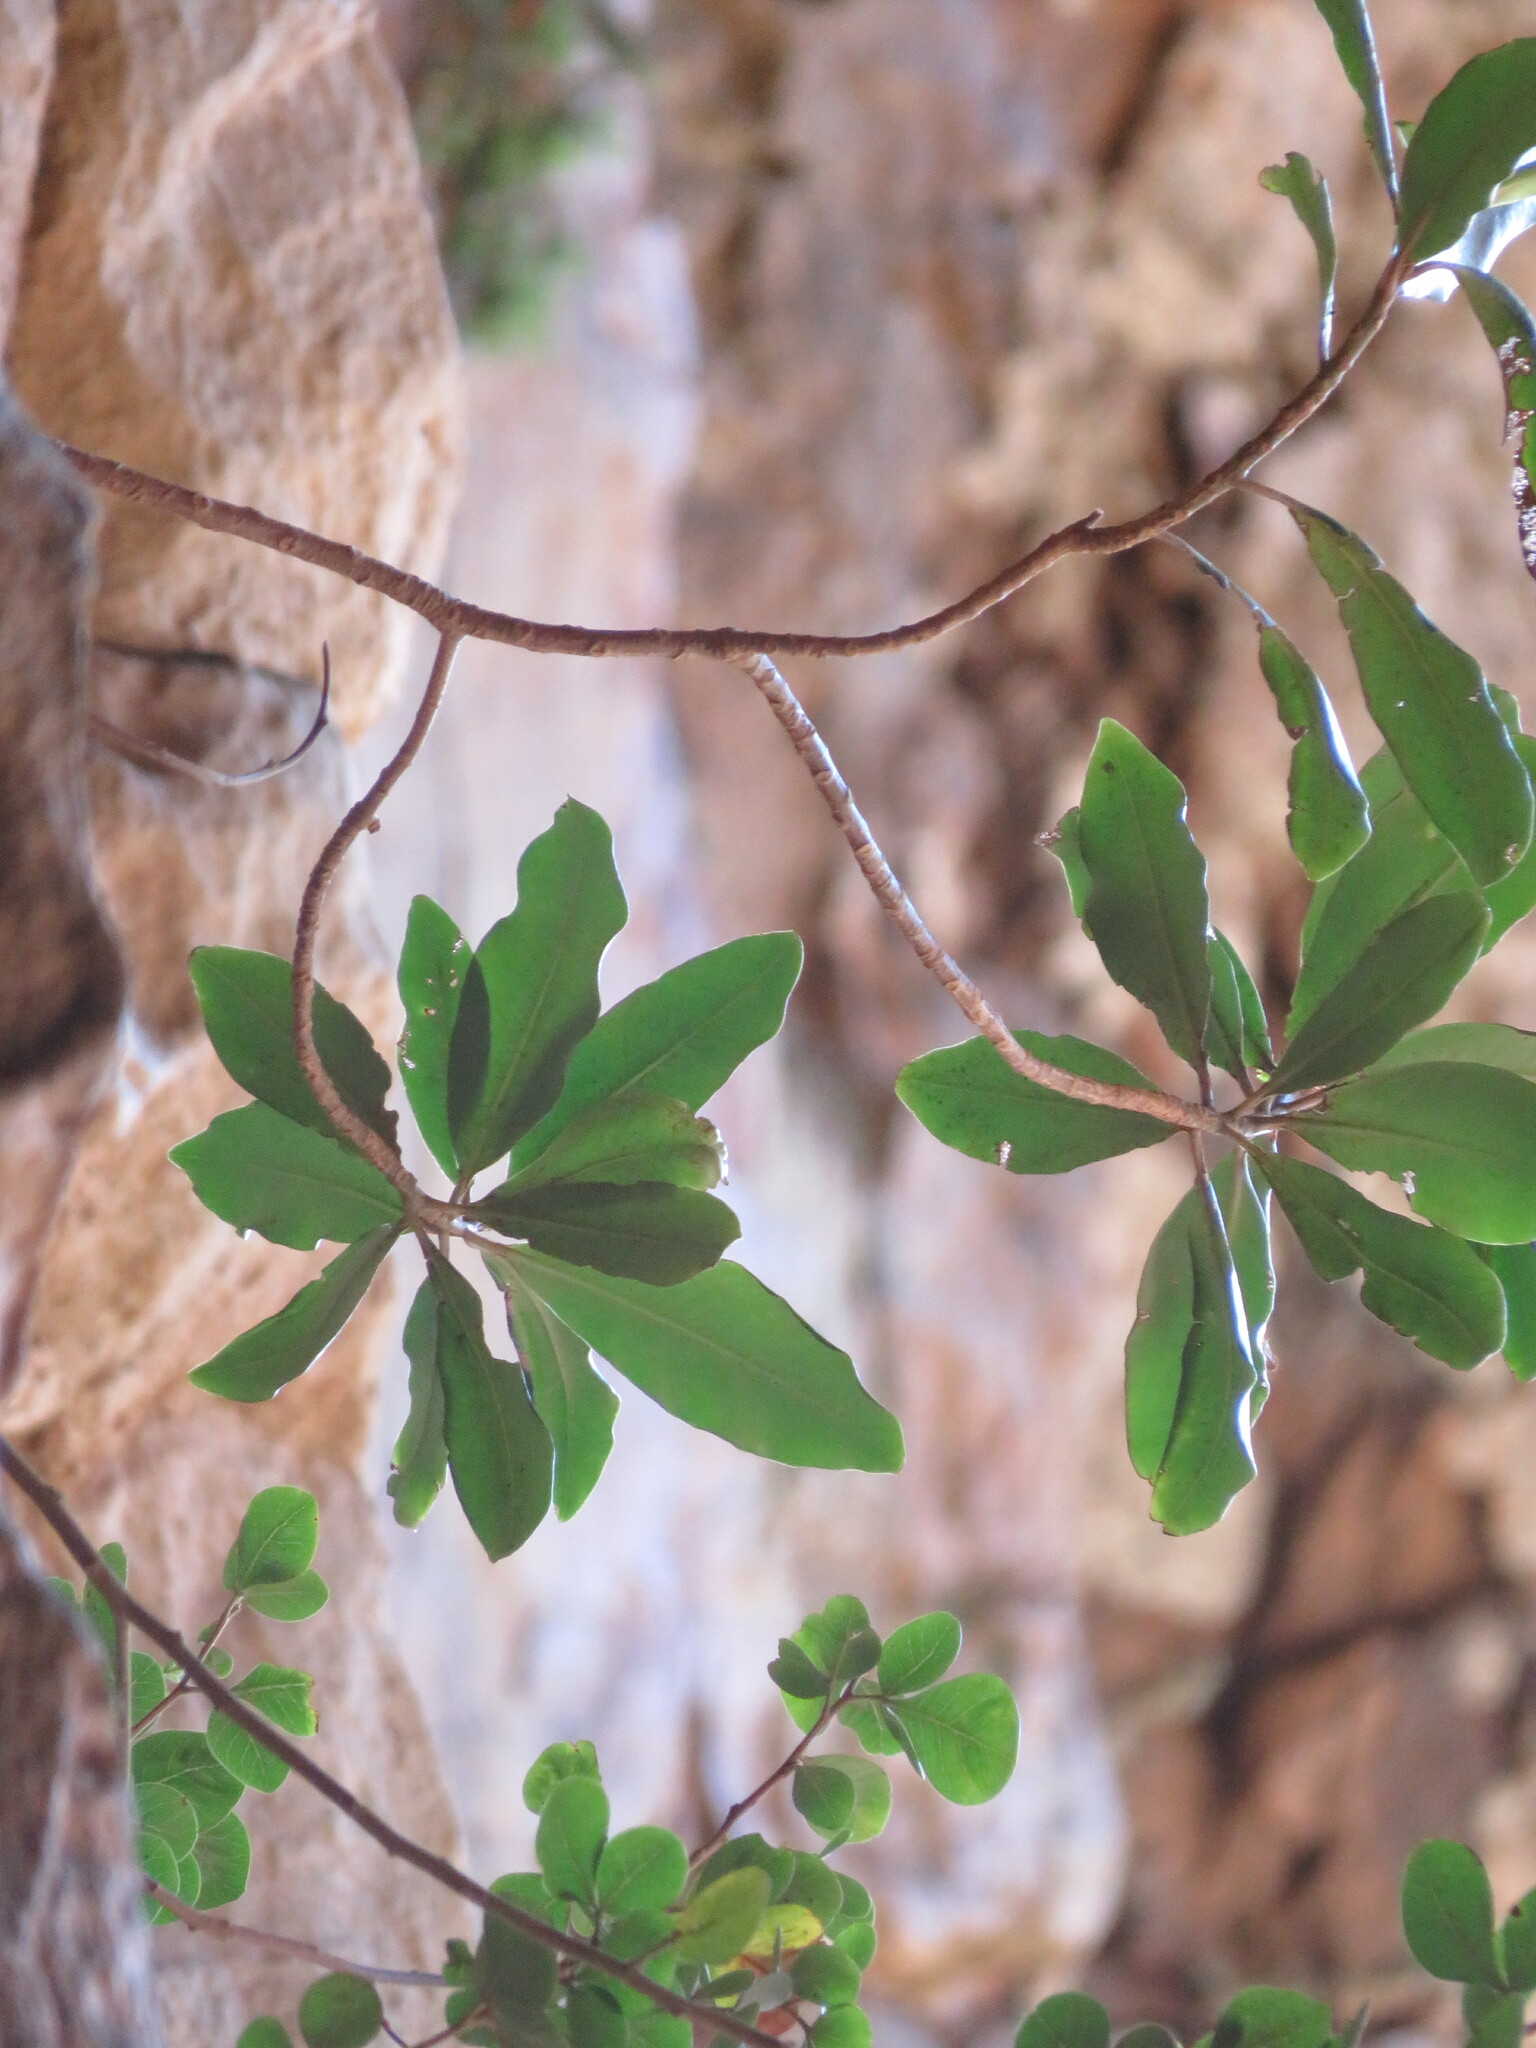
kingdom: Plantae
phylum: Tracheophyta
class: Magnoliopsida
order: Ericales
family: Primulaceae
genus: Myrsine
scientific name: Myrsine melanophloeos
